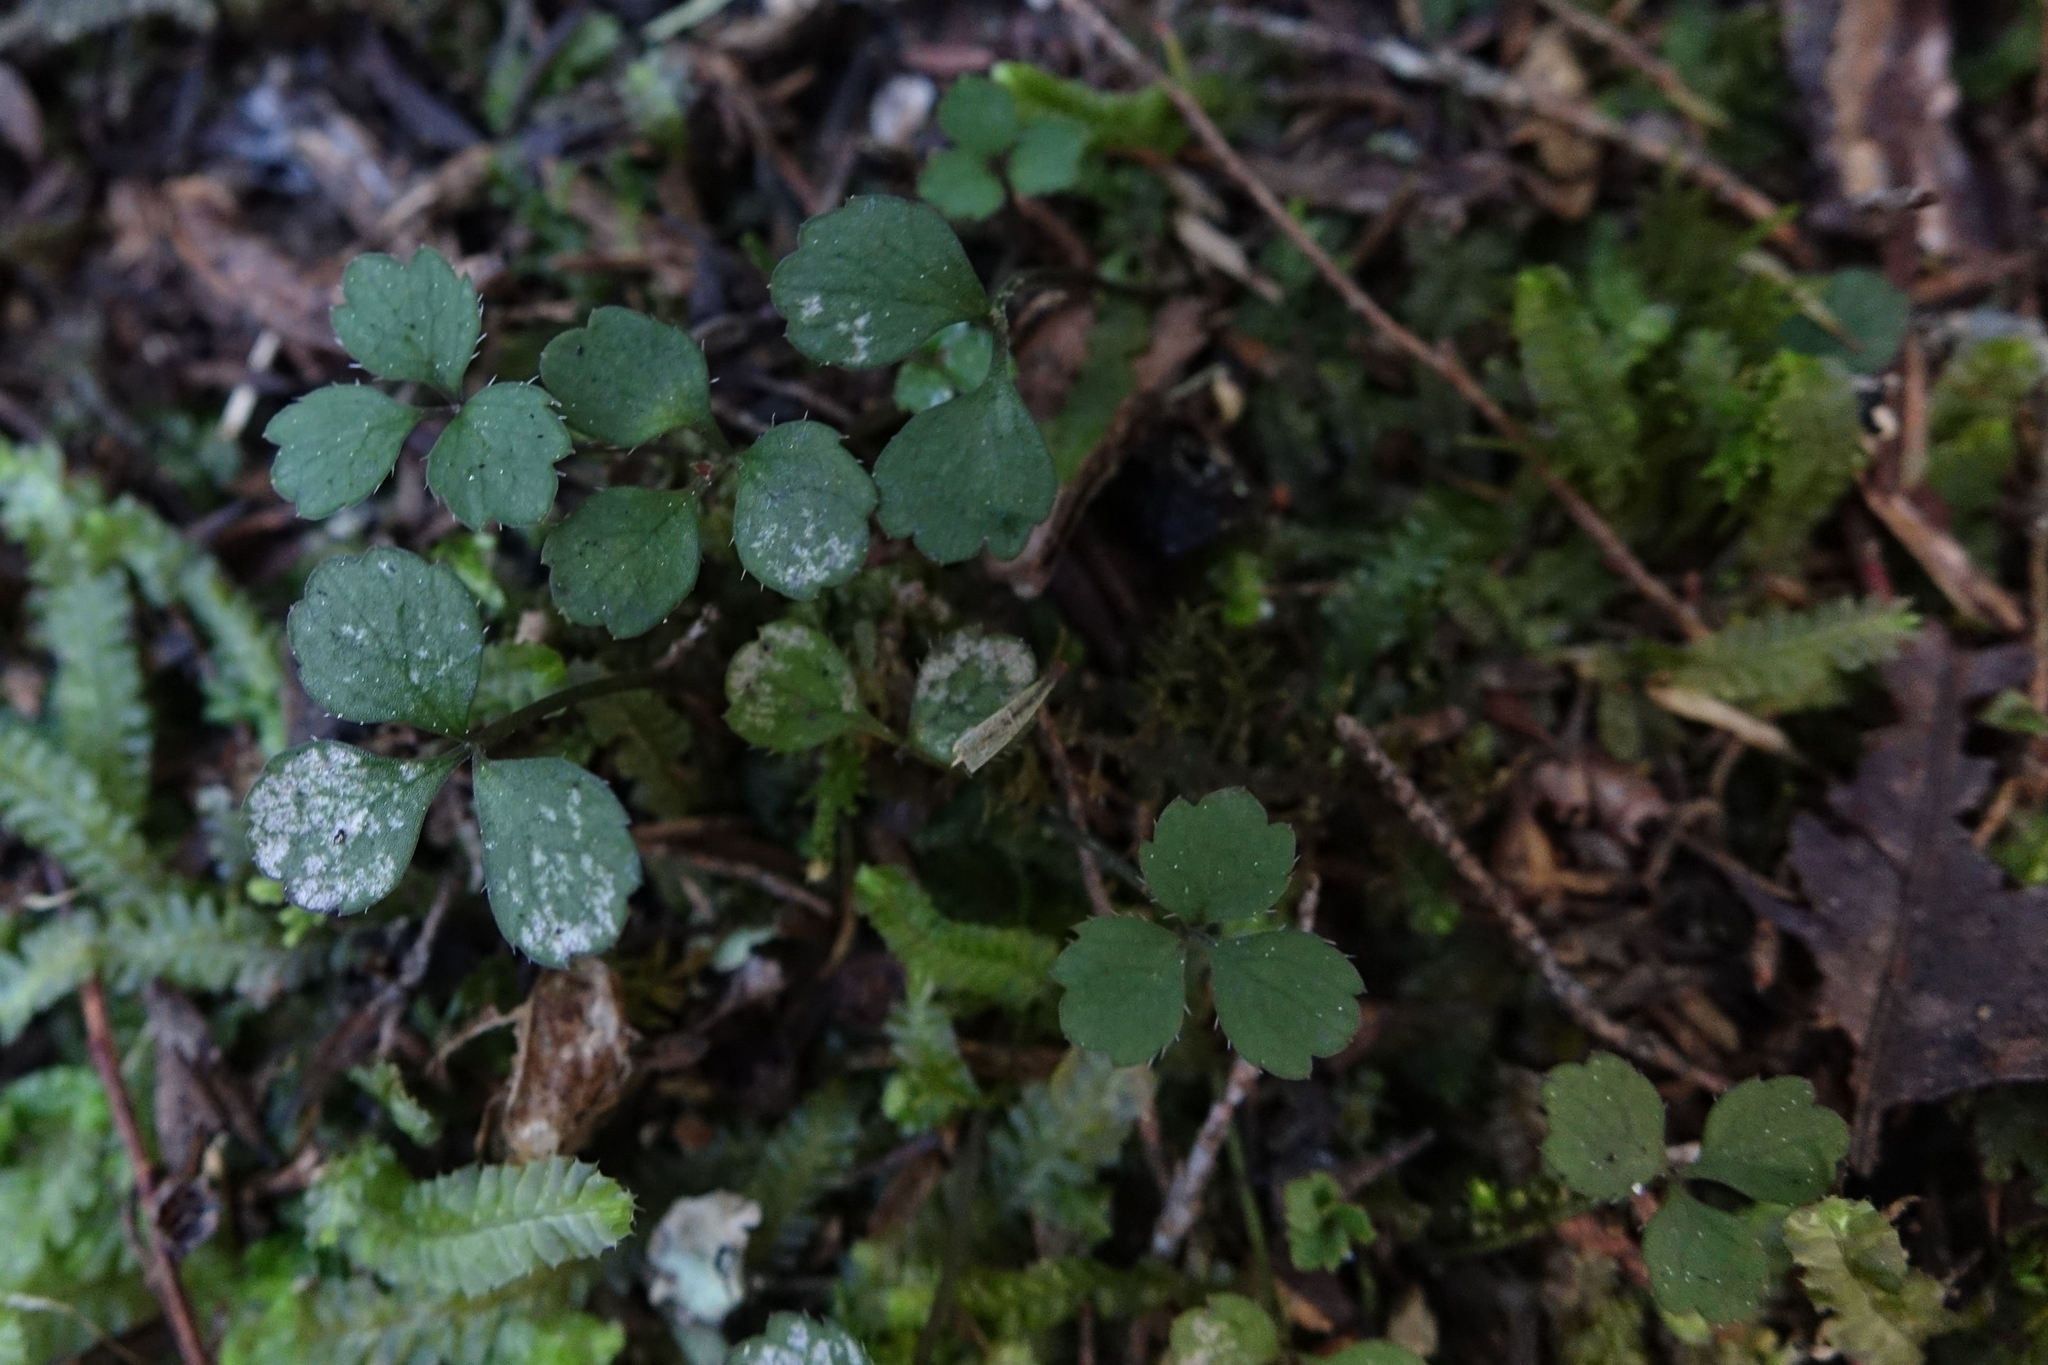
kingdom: Plantae
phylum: Tracheophyta
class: Magnoliopsida
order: Apiales
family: Apiaceae
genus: Azorella
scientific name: Azorella hookeri
